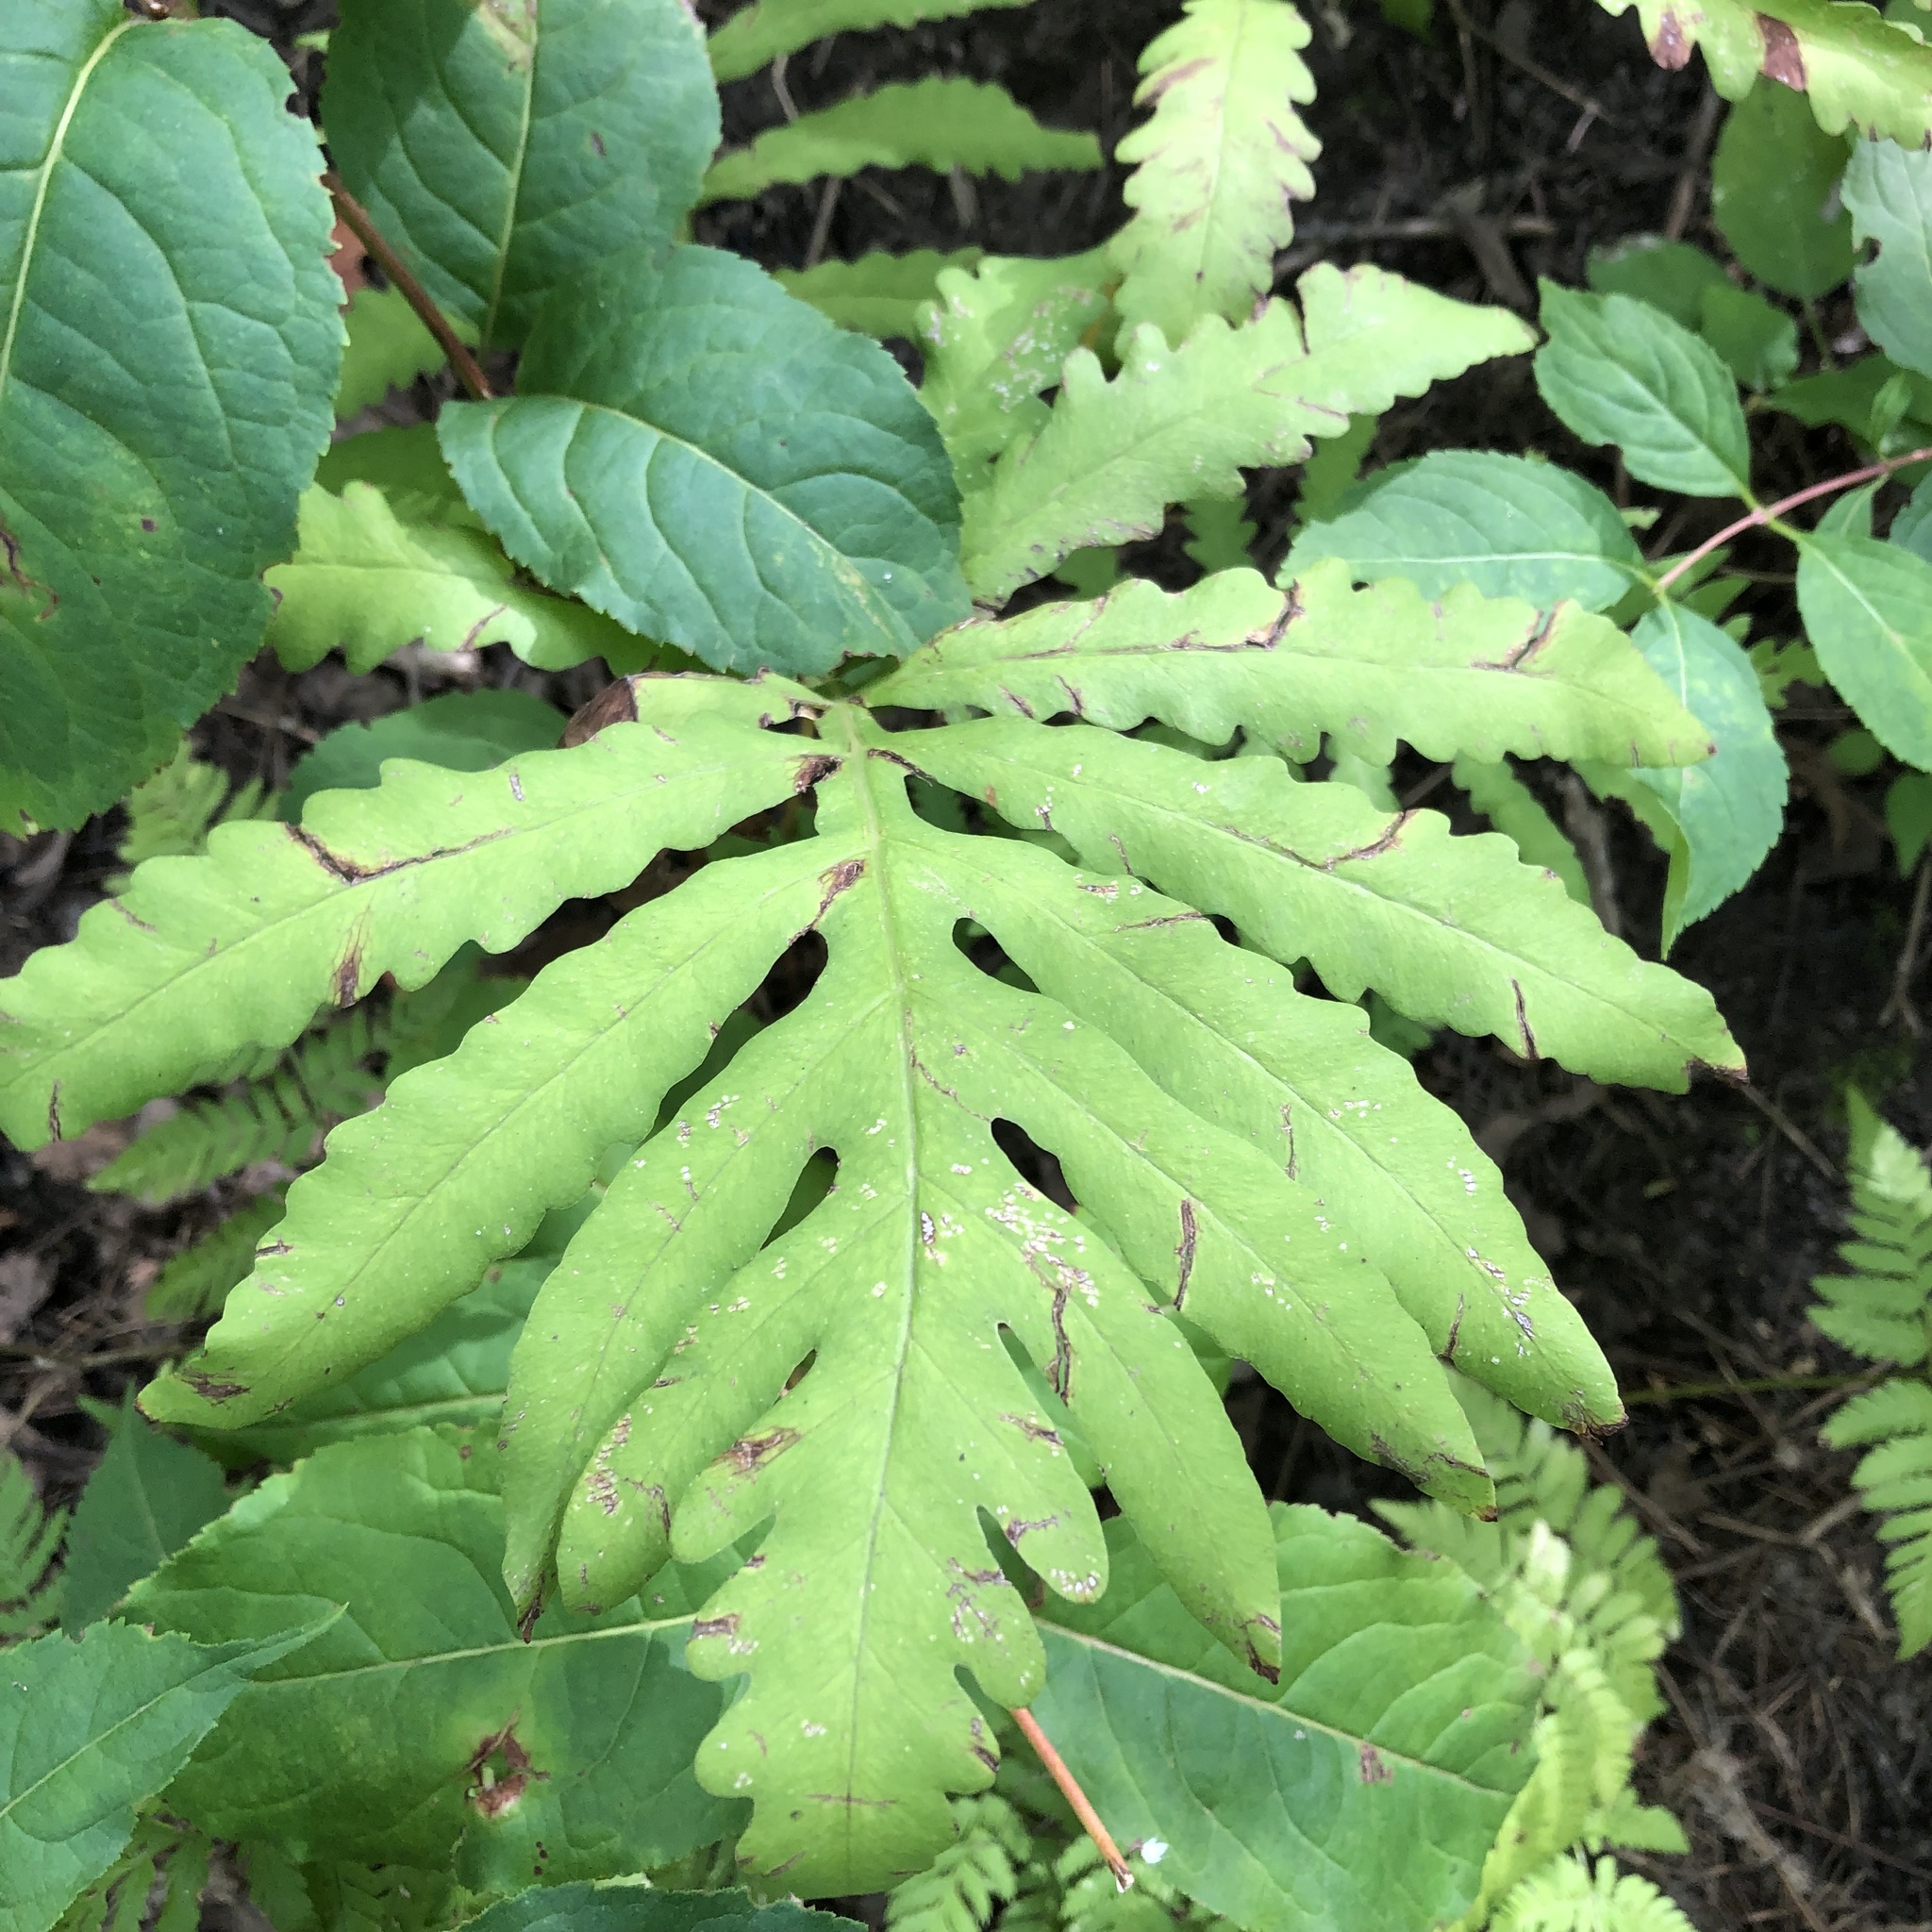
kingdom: Plantae
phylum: Tracheophyta
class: Polypodiopsida
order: Polypodiales
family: Onocleaceae
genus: Onoclea
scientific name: Onoclea sensibilis
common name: Sensitive fern
